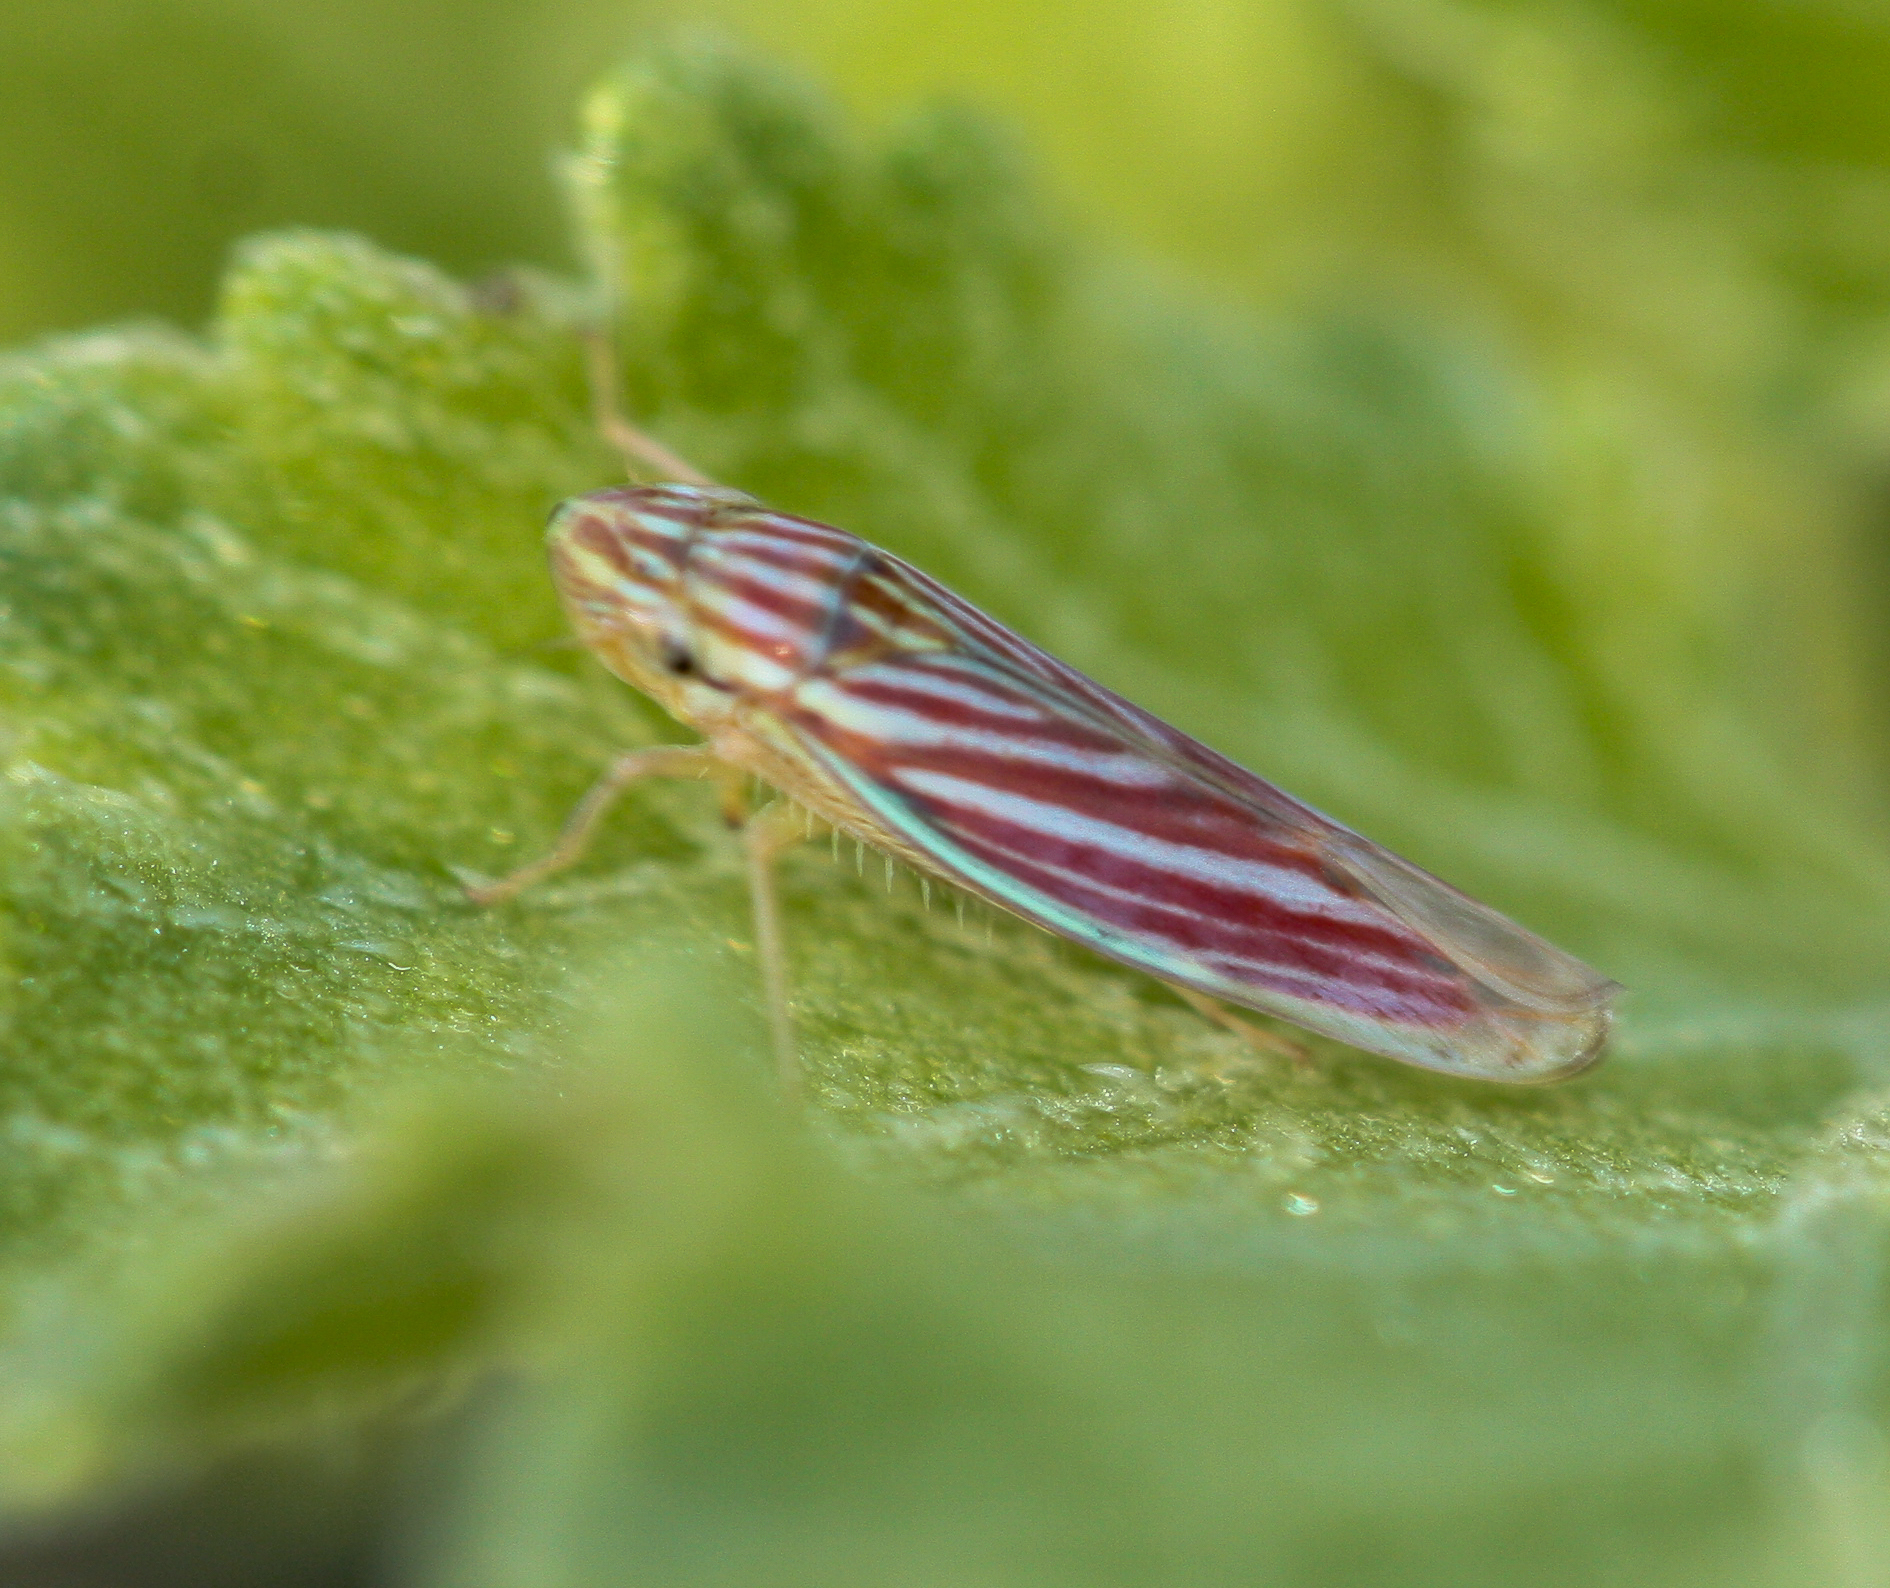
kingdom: Animalia
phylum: Arthropoda
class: Insecta
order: Hemiptera
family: Cicadellidae
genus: Sibovia
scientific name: Sibovia compta
